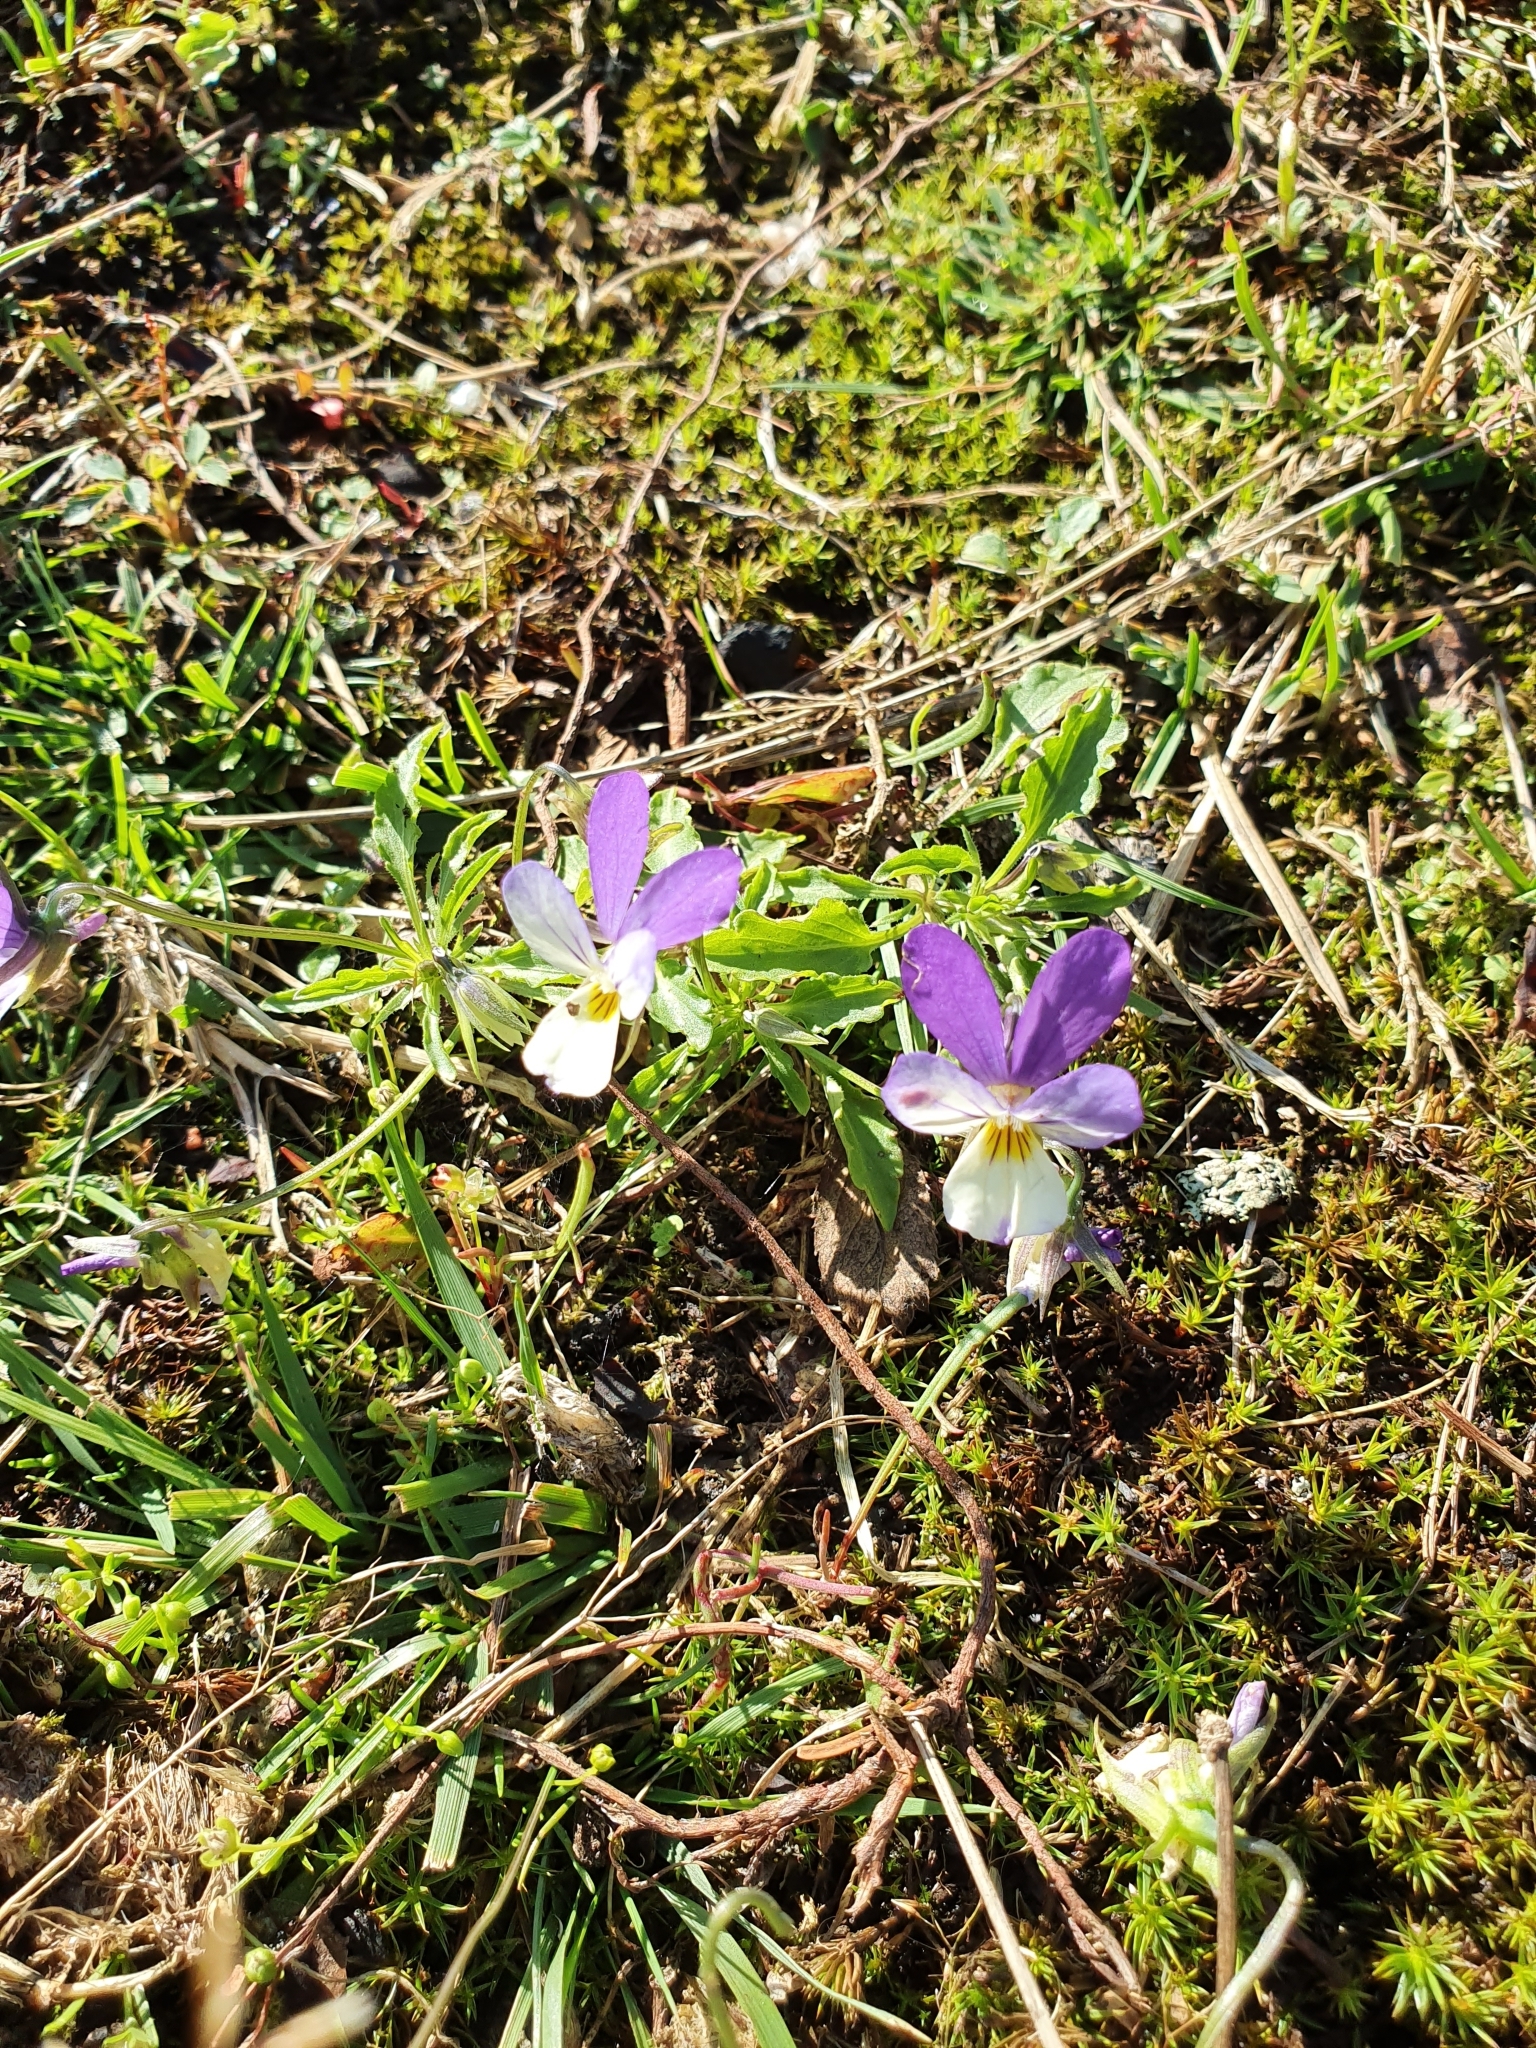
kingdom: Plantae
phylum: Tracheophyta
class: Magnoliopsida
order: Malpighiales
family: Violaceae
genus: Viola
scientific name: Viola tricolor
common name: Pansy
